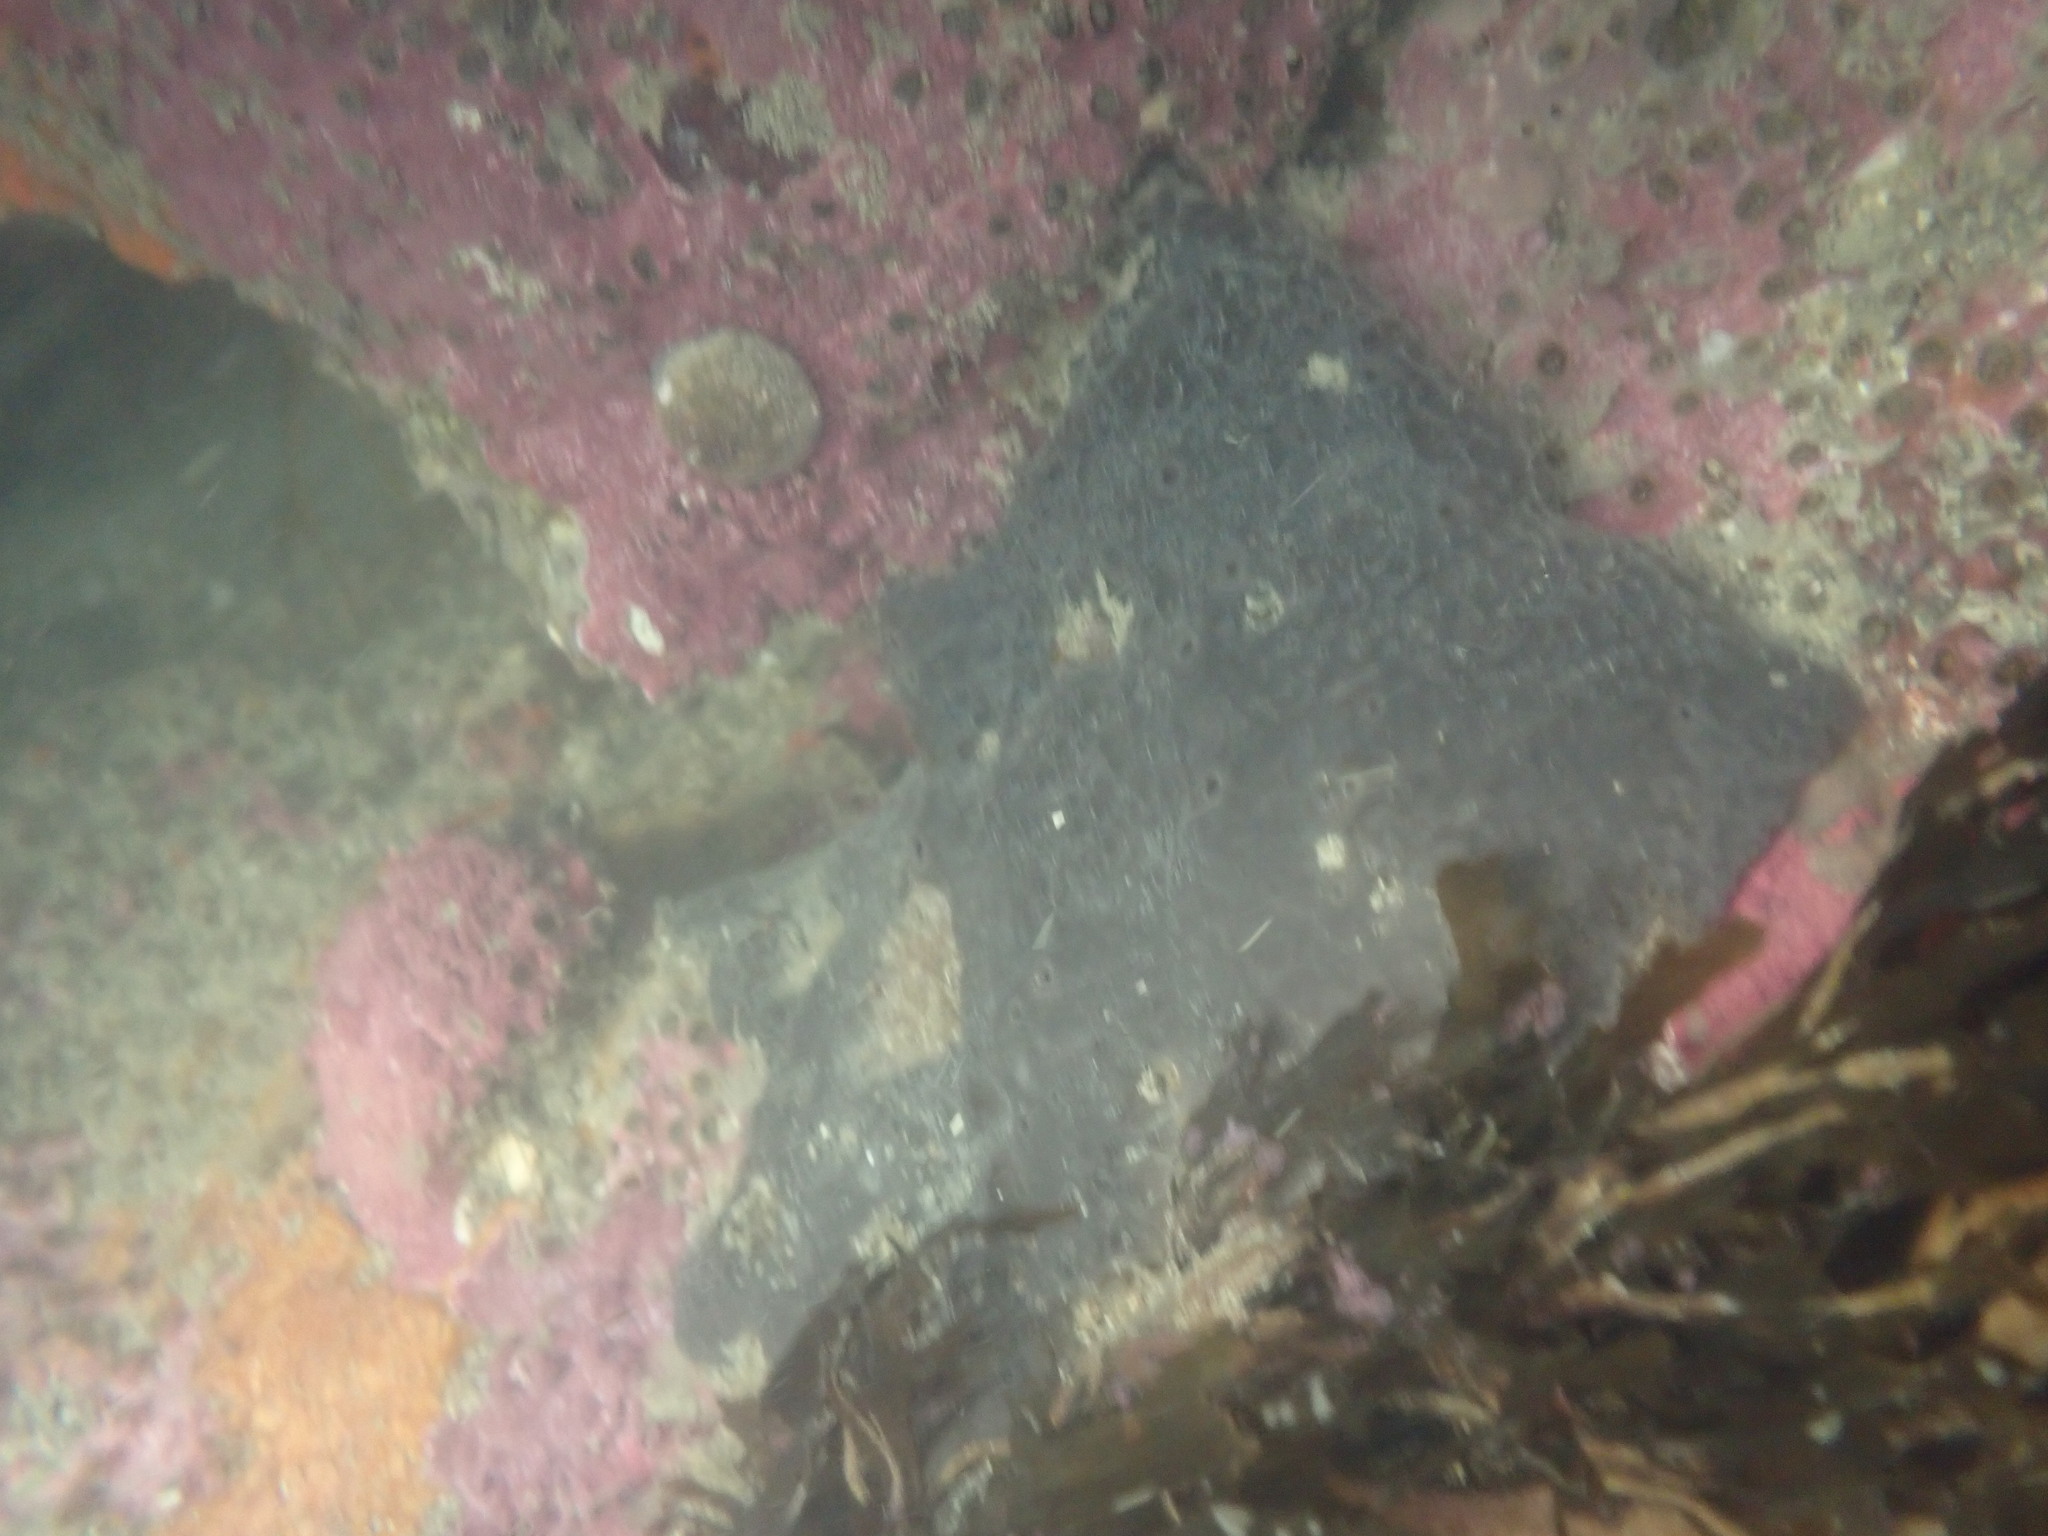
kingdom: Animalia
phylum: Porifera
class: Demospongiae
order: Dictyoceratida
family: Irciniidae
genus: Ircinia
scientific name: Ircinia novaezealandiae
